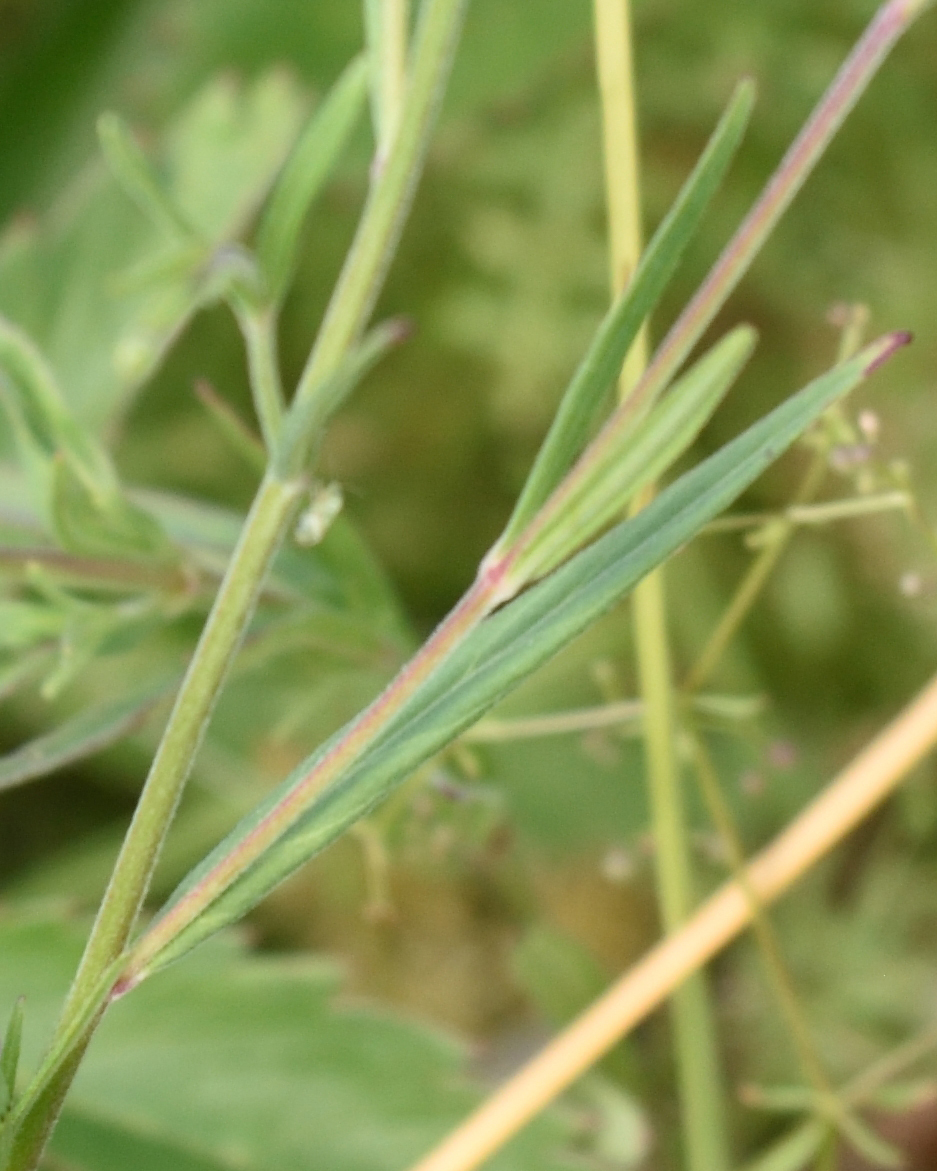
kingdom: Plantae
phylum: Tracheophyta
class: Magnoliopsida
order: Myrtales
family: Onagraceae
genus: Epilobium
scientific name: Epilobium palustre
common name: Marsh willowherb
